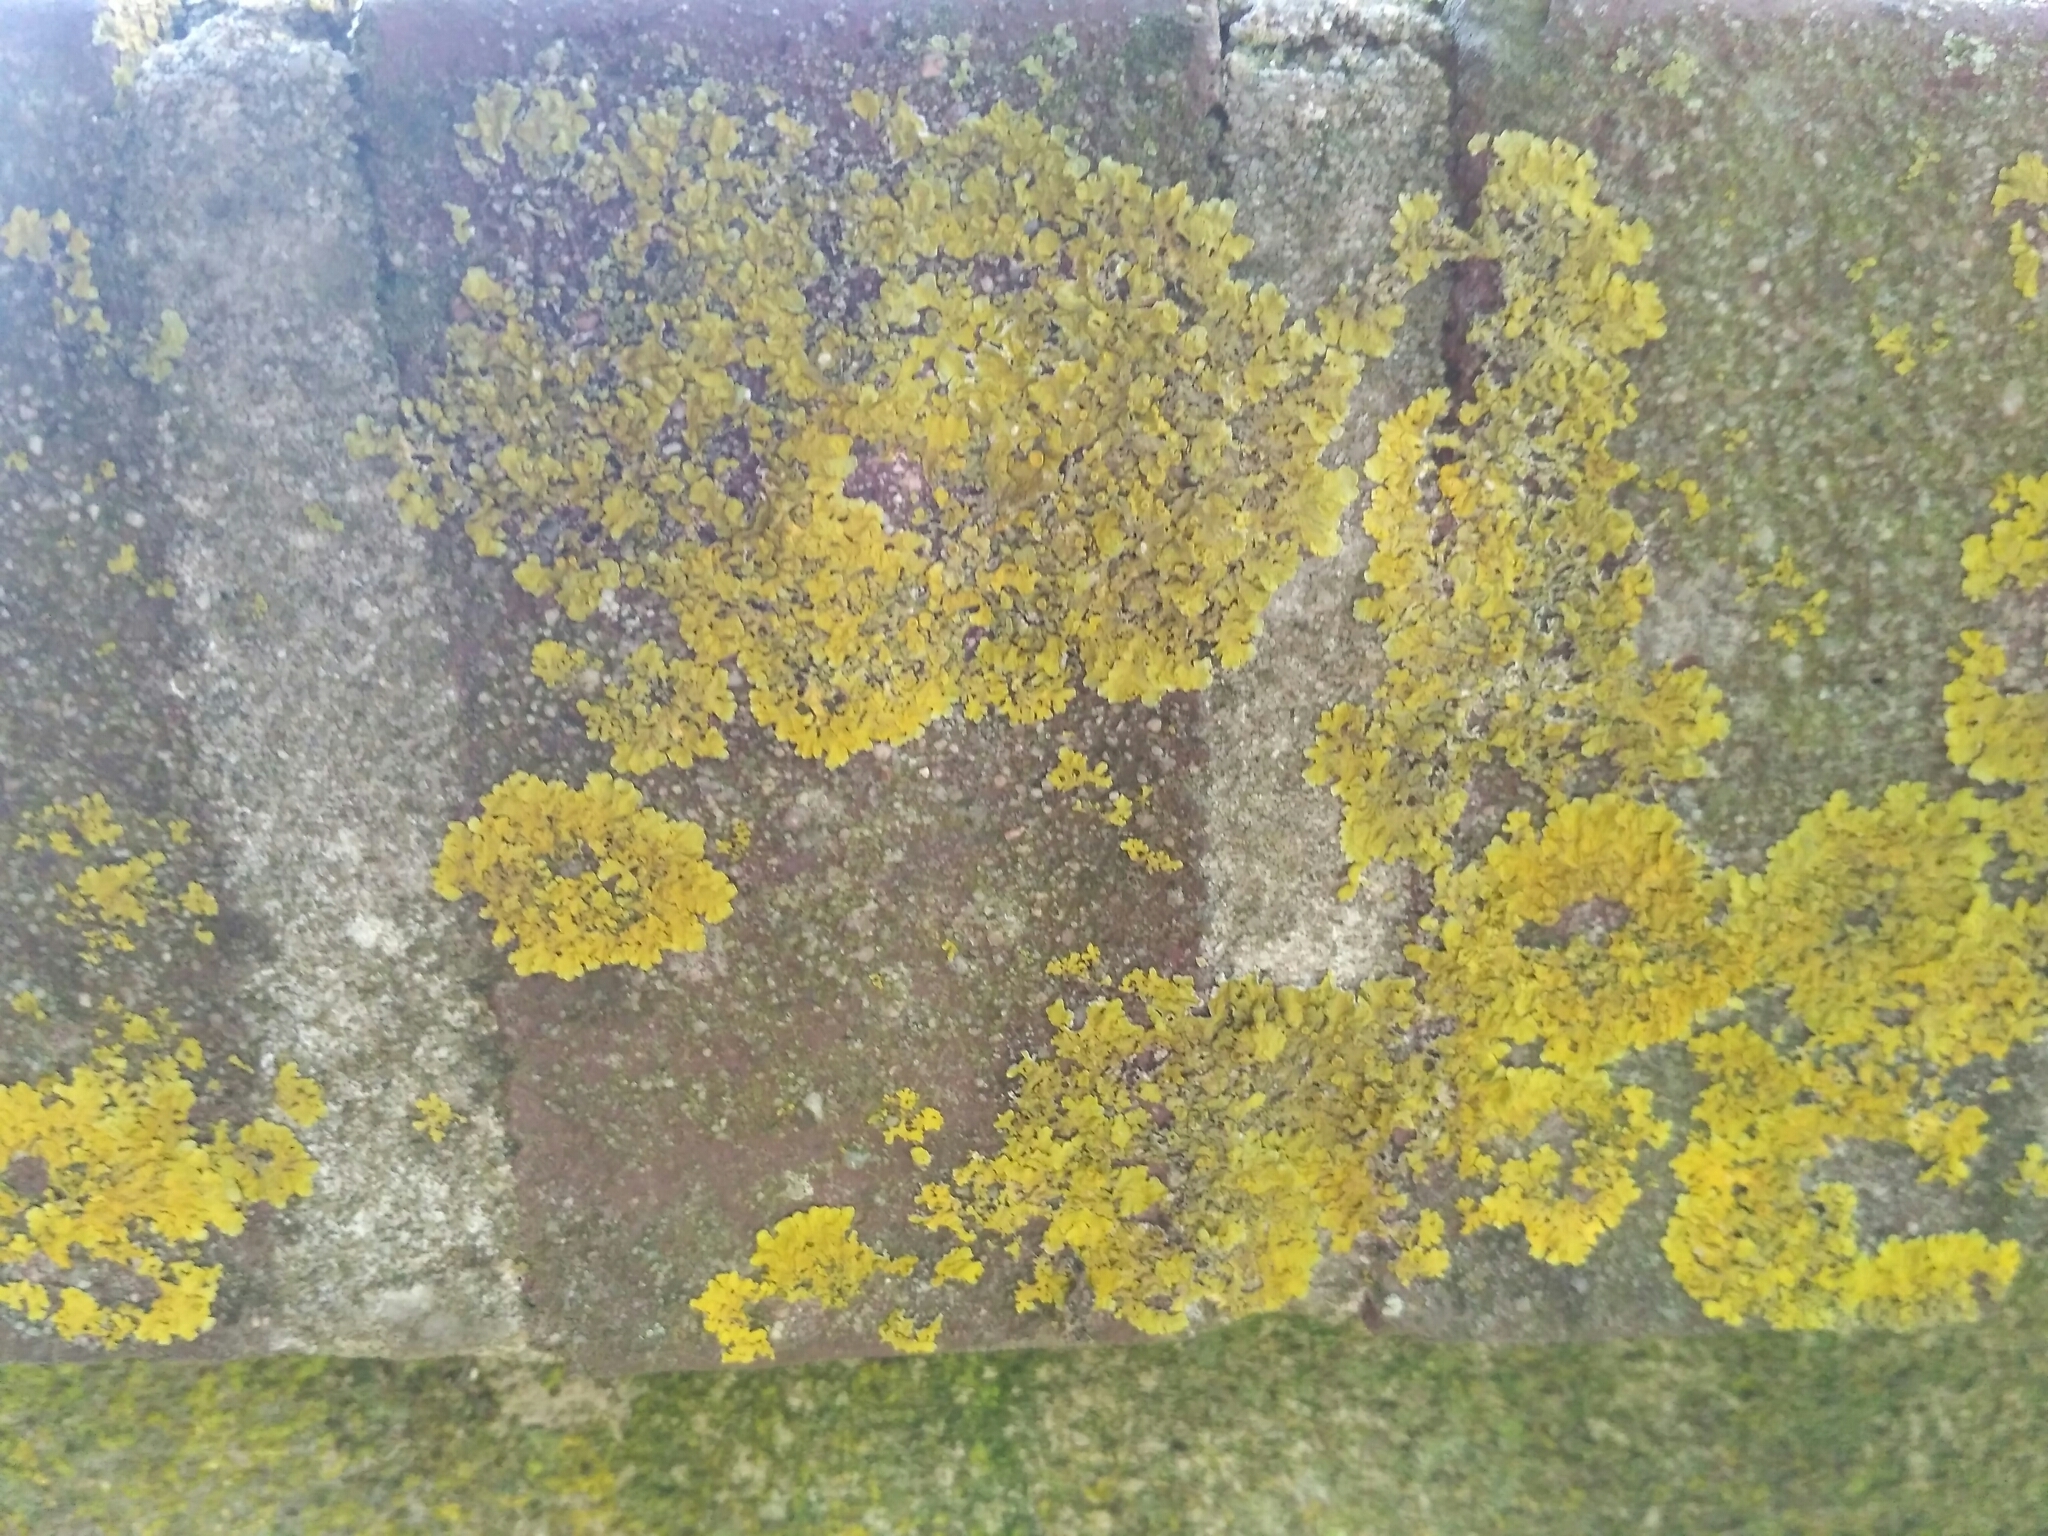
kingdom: Fungi
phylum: Ascomycota
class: Lecanoromycetes
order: Teloschistales
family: Teloschistaceae
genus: Xanthoria
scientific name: Xanthoria parietina
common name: Common orange lichen
